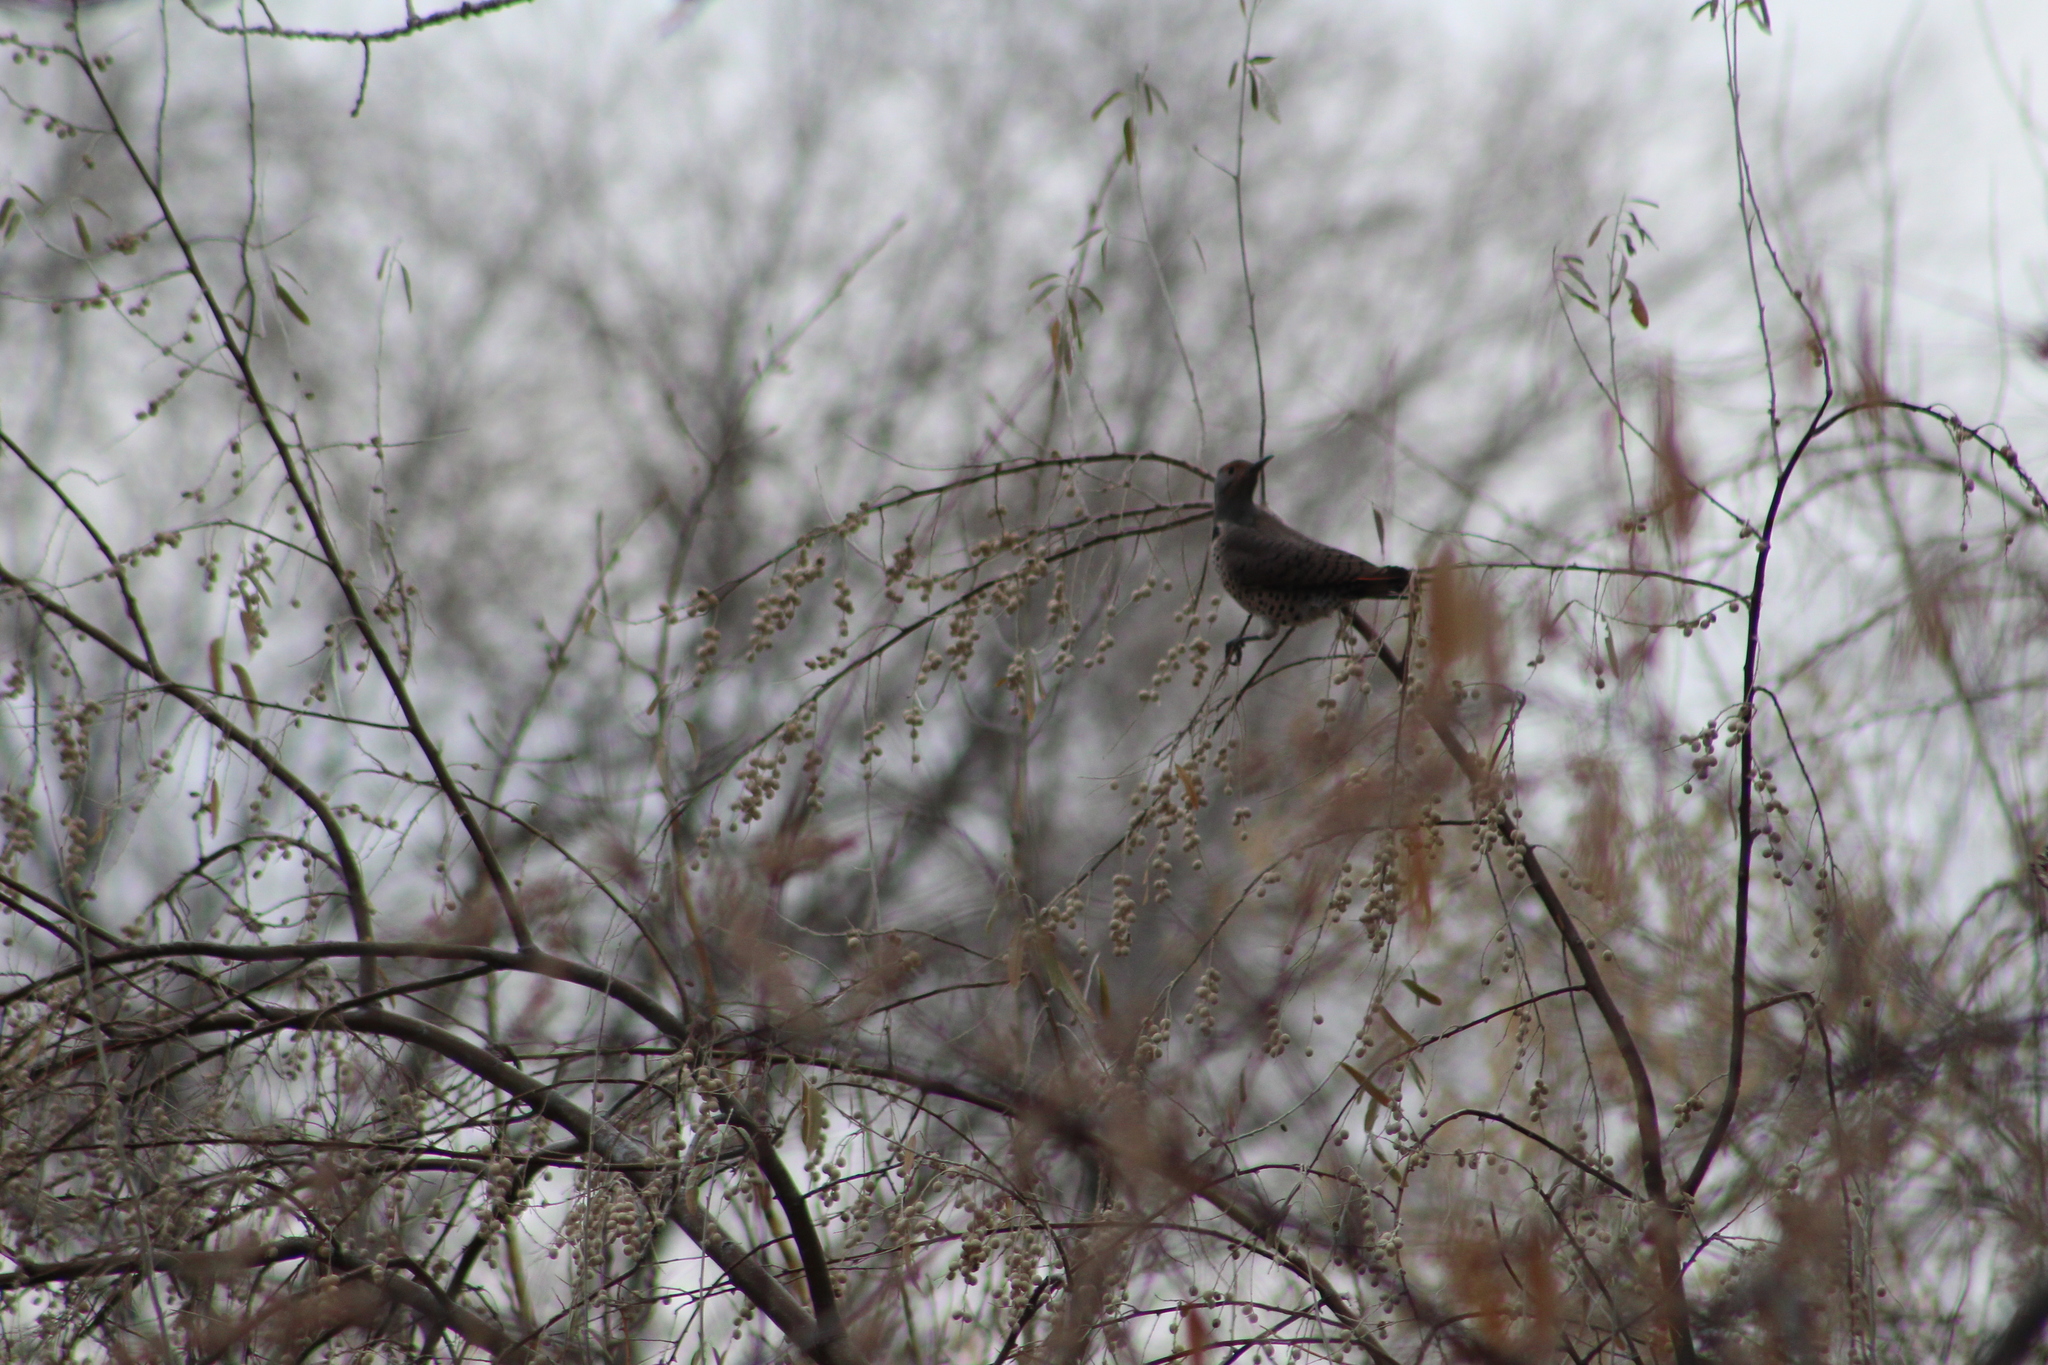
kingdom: Animalia
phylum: Chordata
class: Aves
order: Piciformes
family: Picidae
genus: Colaptes
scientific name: Colaptes auratus
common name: Northern flicker
